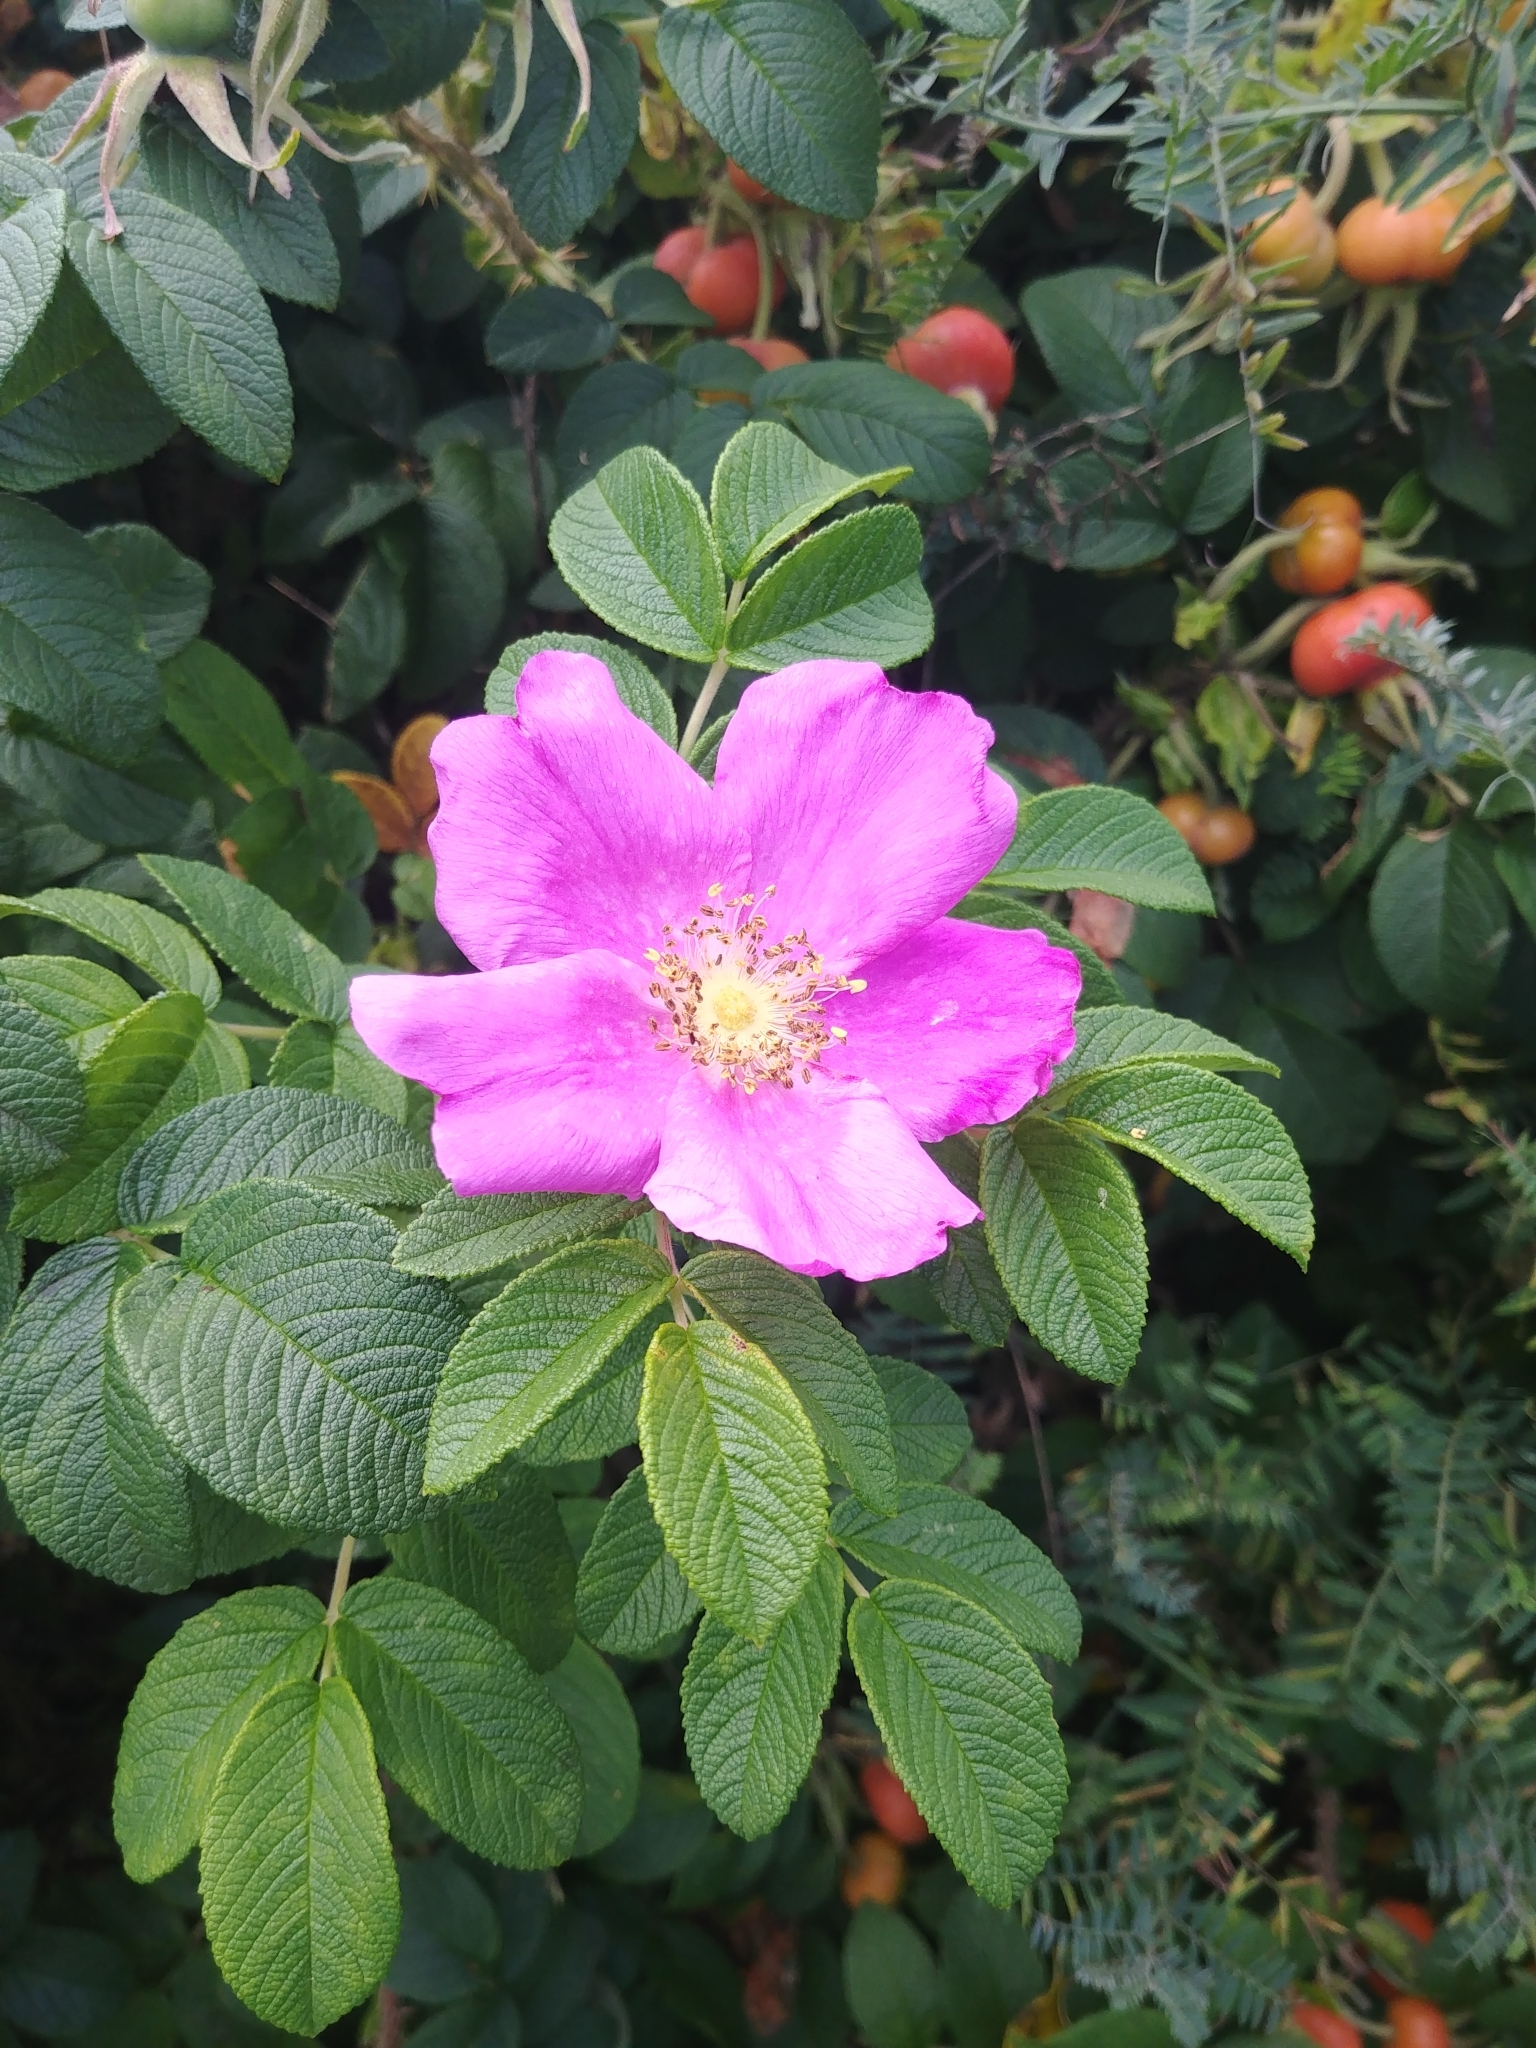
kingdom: Plantae
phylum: Tracheophyta
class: Magnoliopsida
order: Rosales
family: Rosaceae
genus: Rosa
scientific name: Rosa rugosa
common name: Japanese rose
